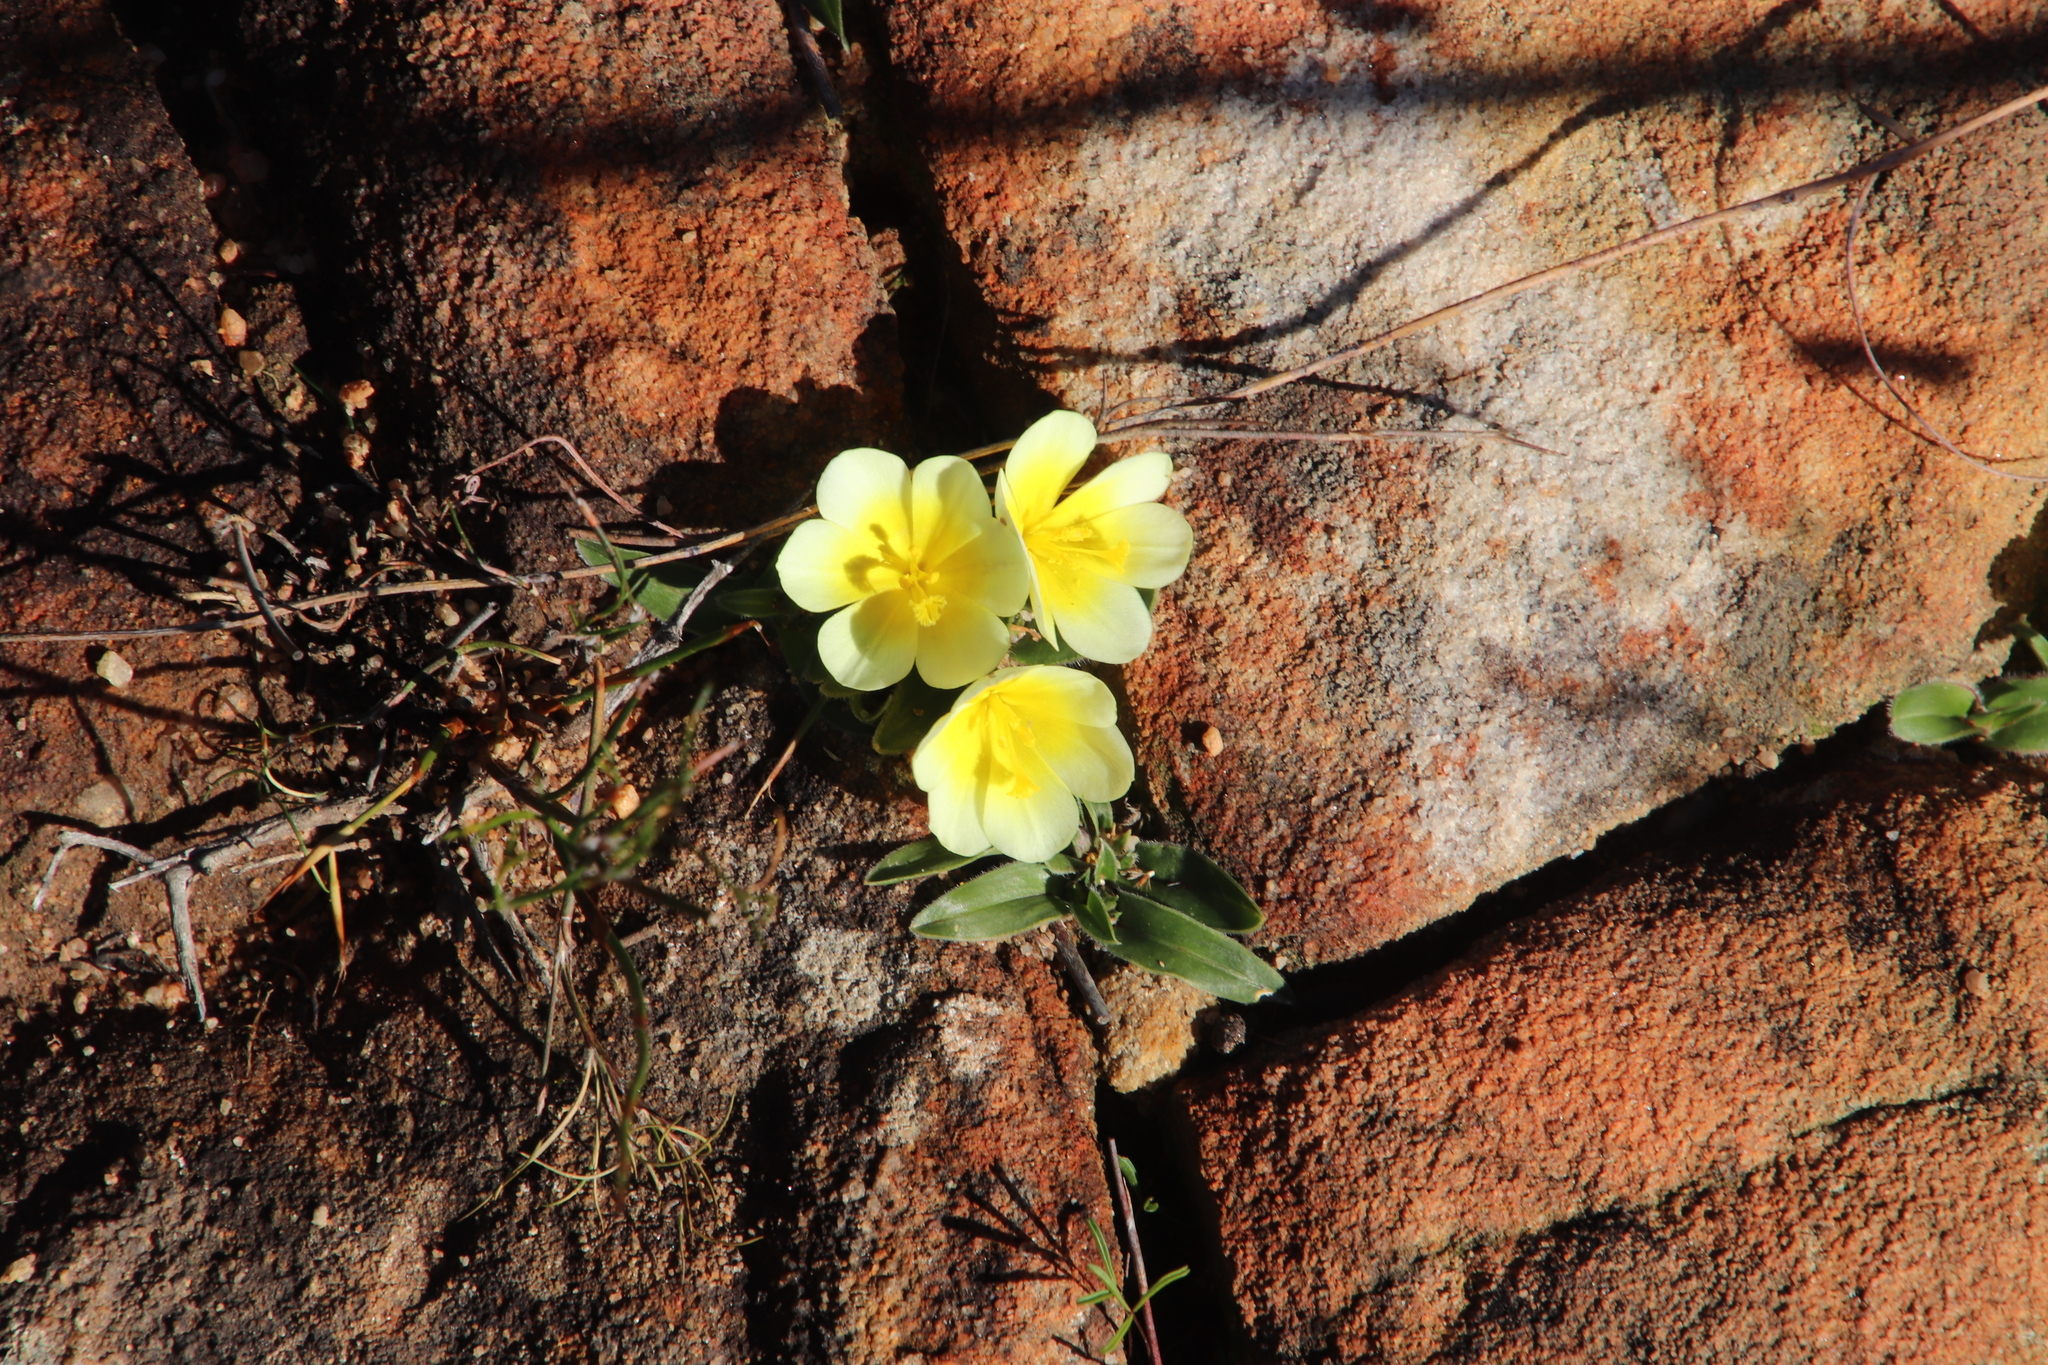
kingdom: Plantae
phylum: Tracheophyta
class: Liliopsida
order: Asparagales
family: Iridaceae
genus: Moraea
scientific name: Moraea luteoalba
